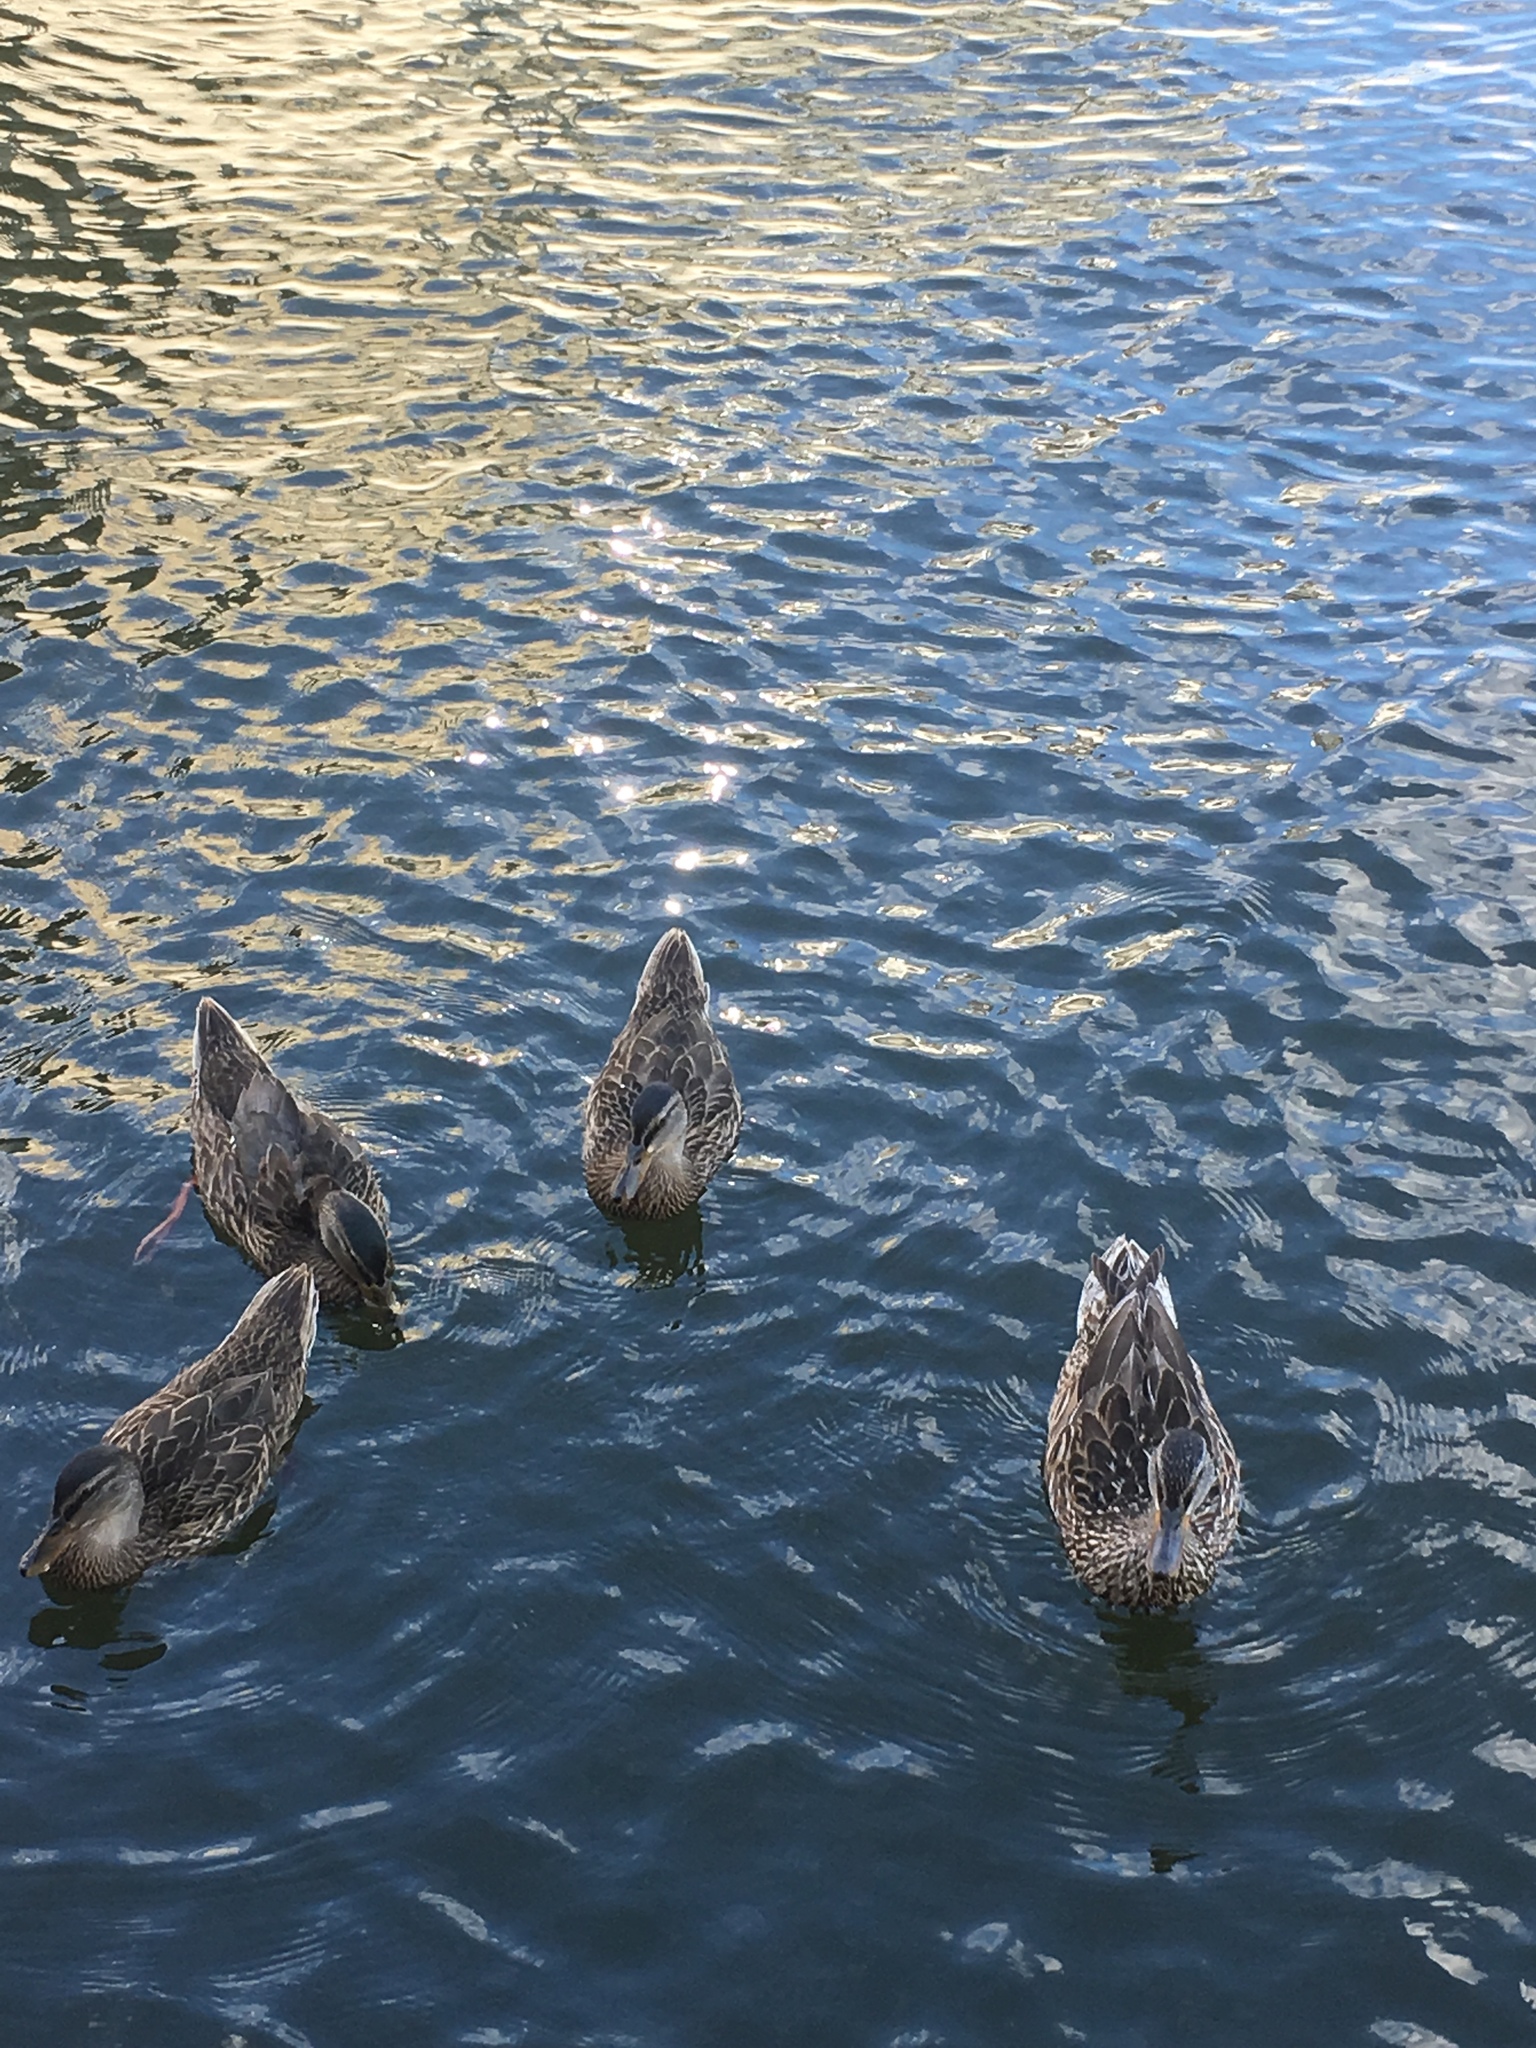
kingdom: Animalia
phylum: Chordata
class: Aves
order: Anseriformes
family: Anatidae
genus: Anas
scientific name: Anas platyrhynchos
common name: Mallard
